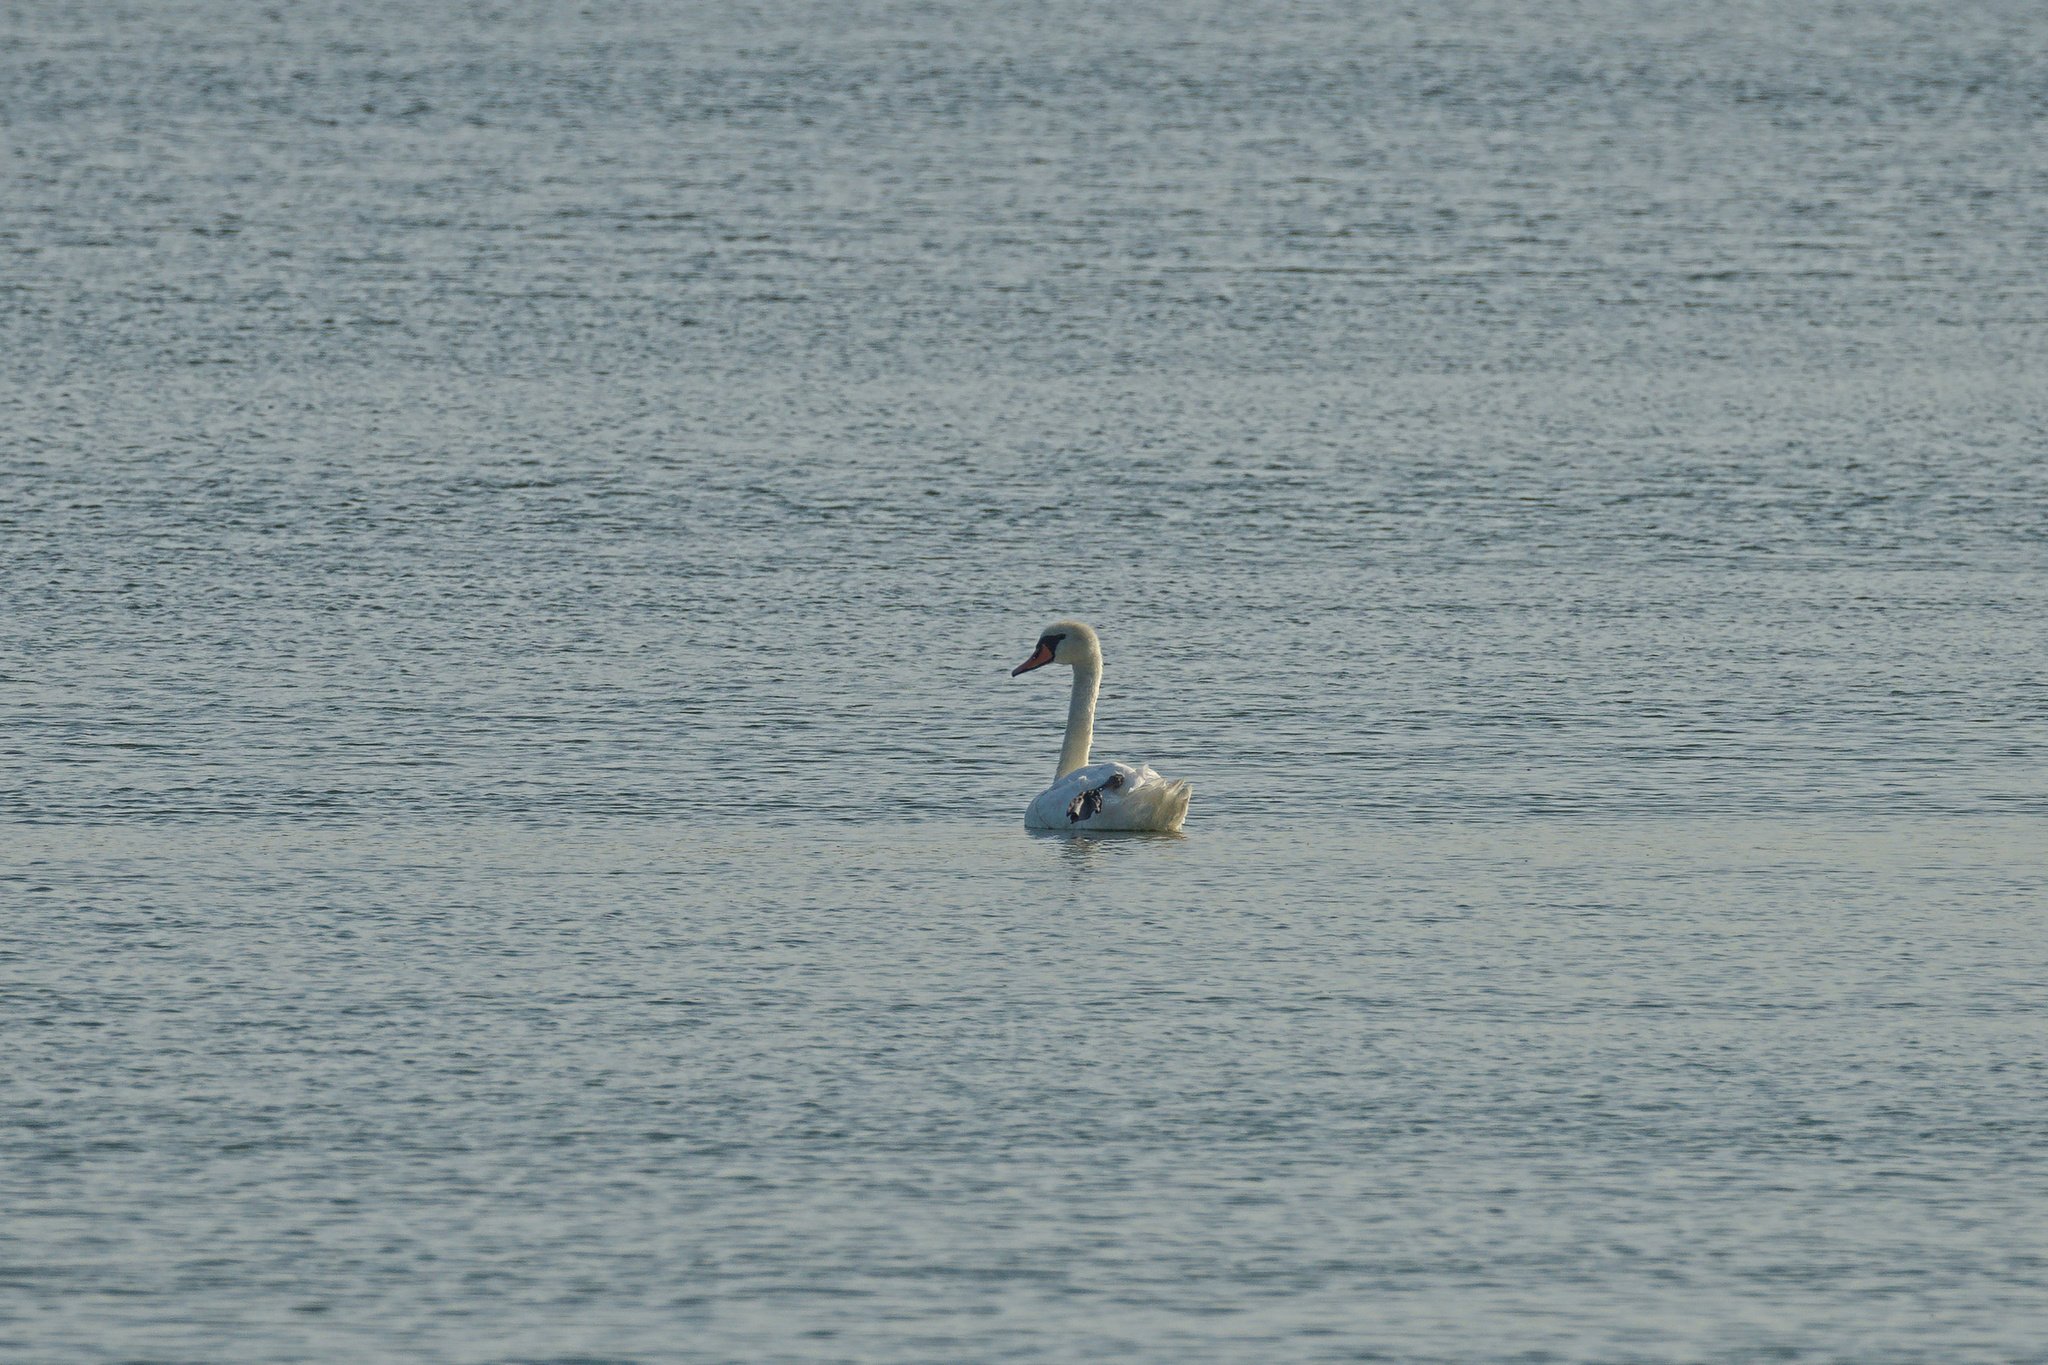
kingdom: Animalia
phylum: Chordata
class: Aves
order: Anseriformes
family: Anatidae
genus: Cygnus
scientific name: Cygnus olor
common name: Mute swan
